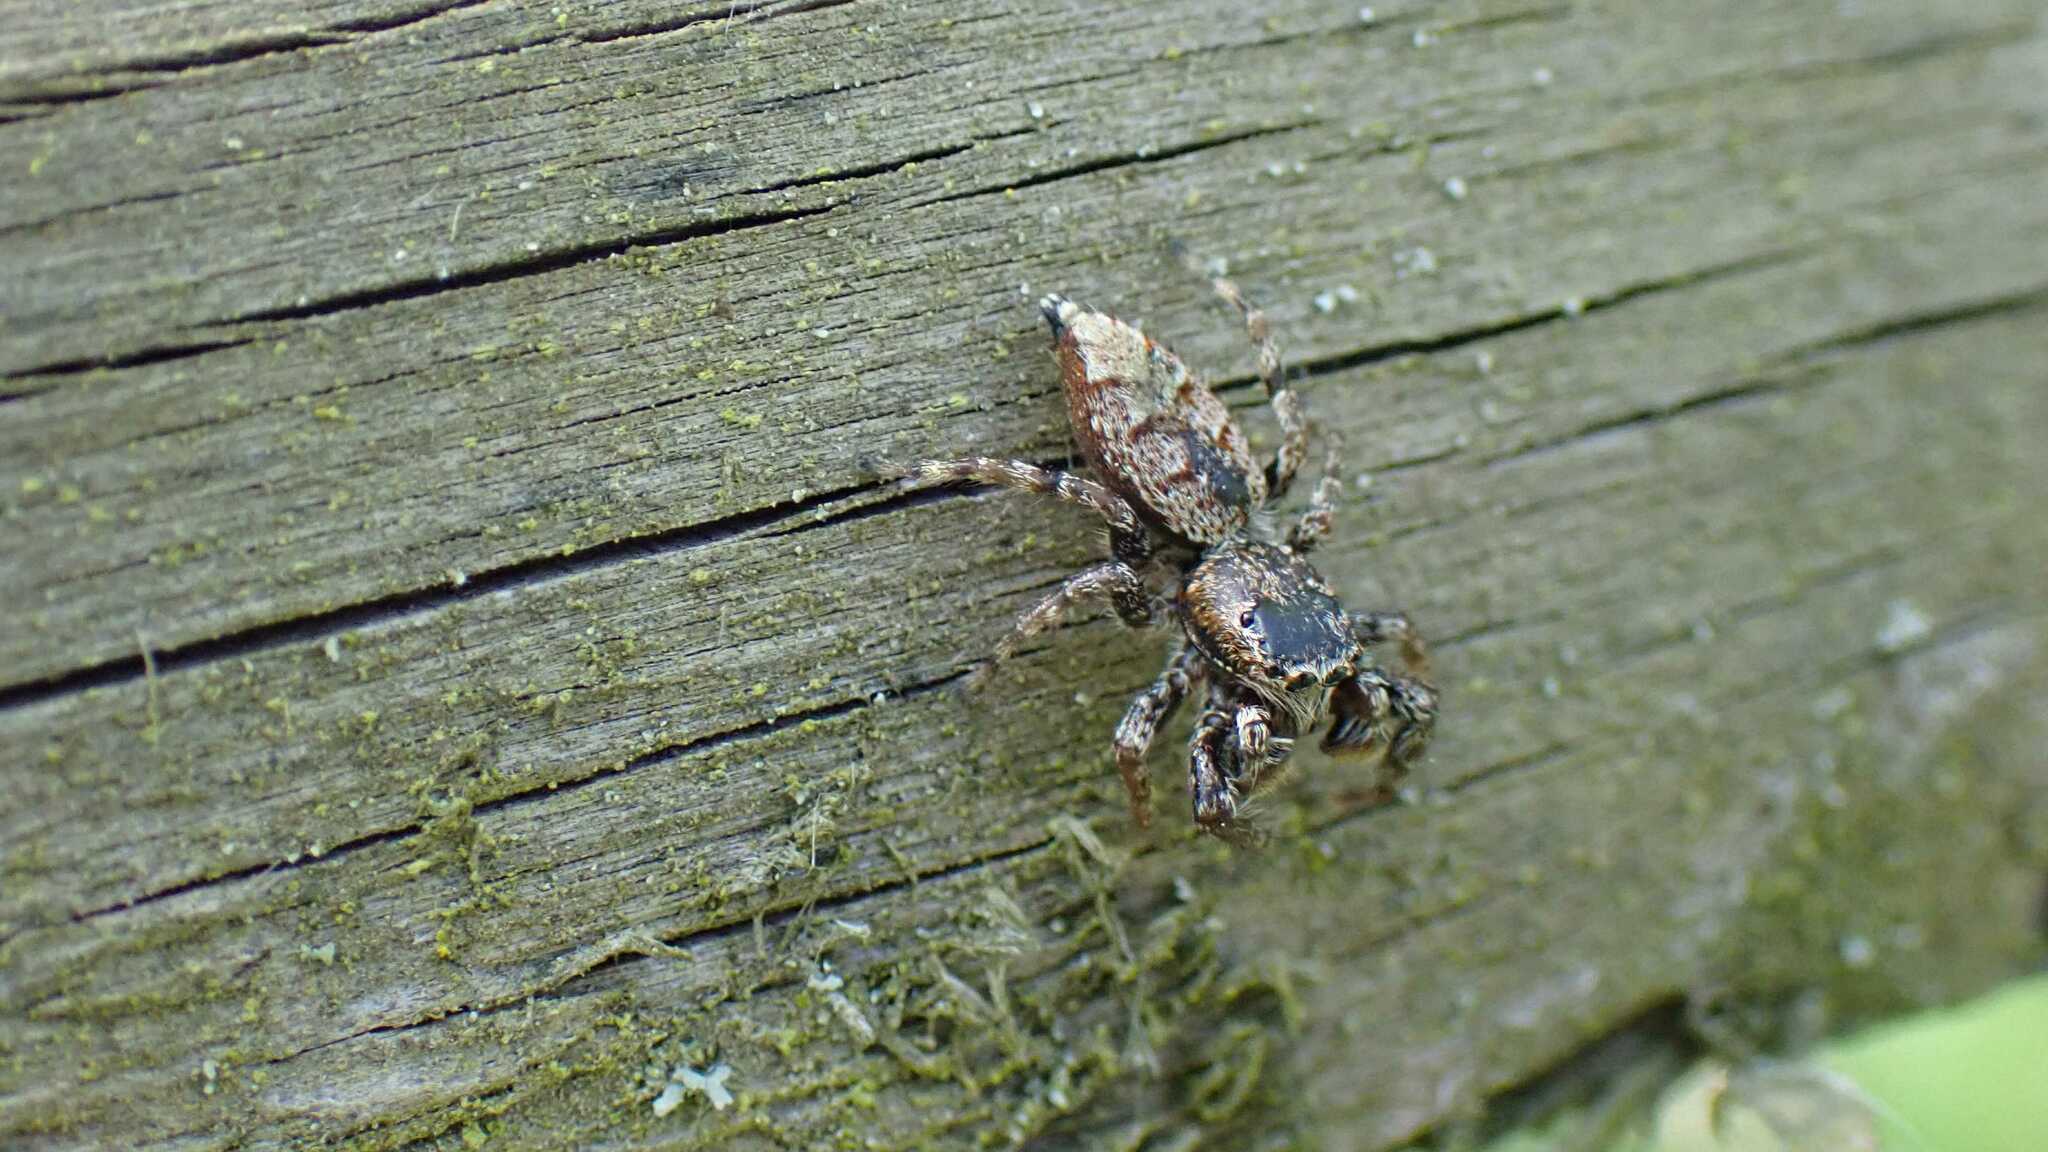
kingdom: Animalia
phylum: Arthropoda
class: Arachnida
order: Araneae
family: Salticidae
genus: Marpissa
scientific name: Marpissa muscosa
